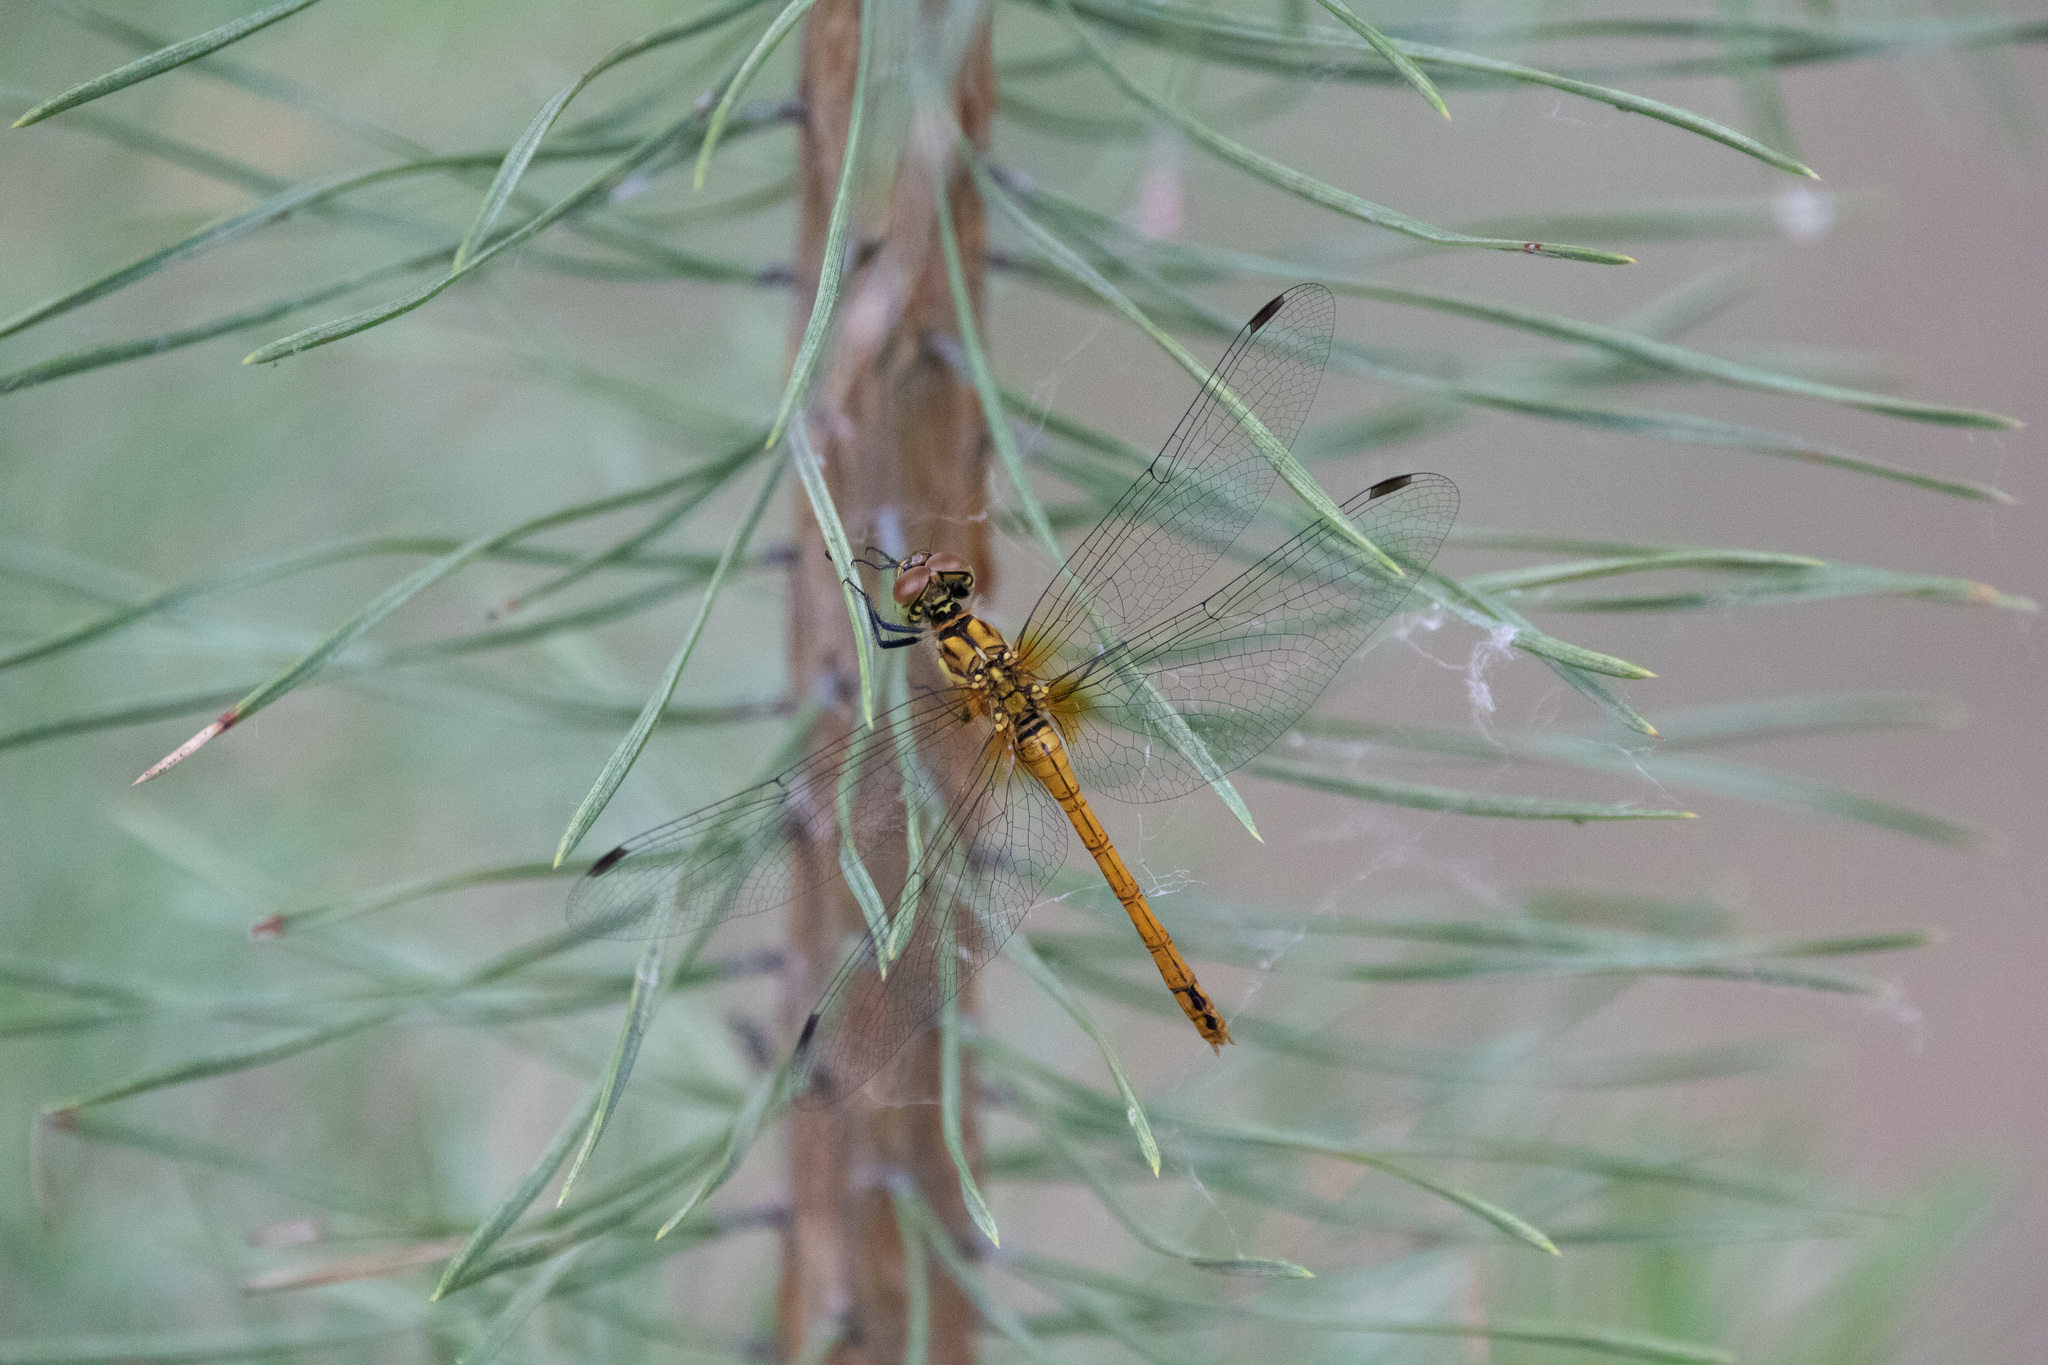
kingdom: Animalia
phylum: Arthropoda
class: Insecta
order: Odonata
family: Libellulidae
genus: Sympetrum
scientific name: Sympetrum sanguineum
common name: Ruddy darter
